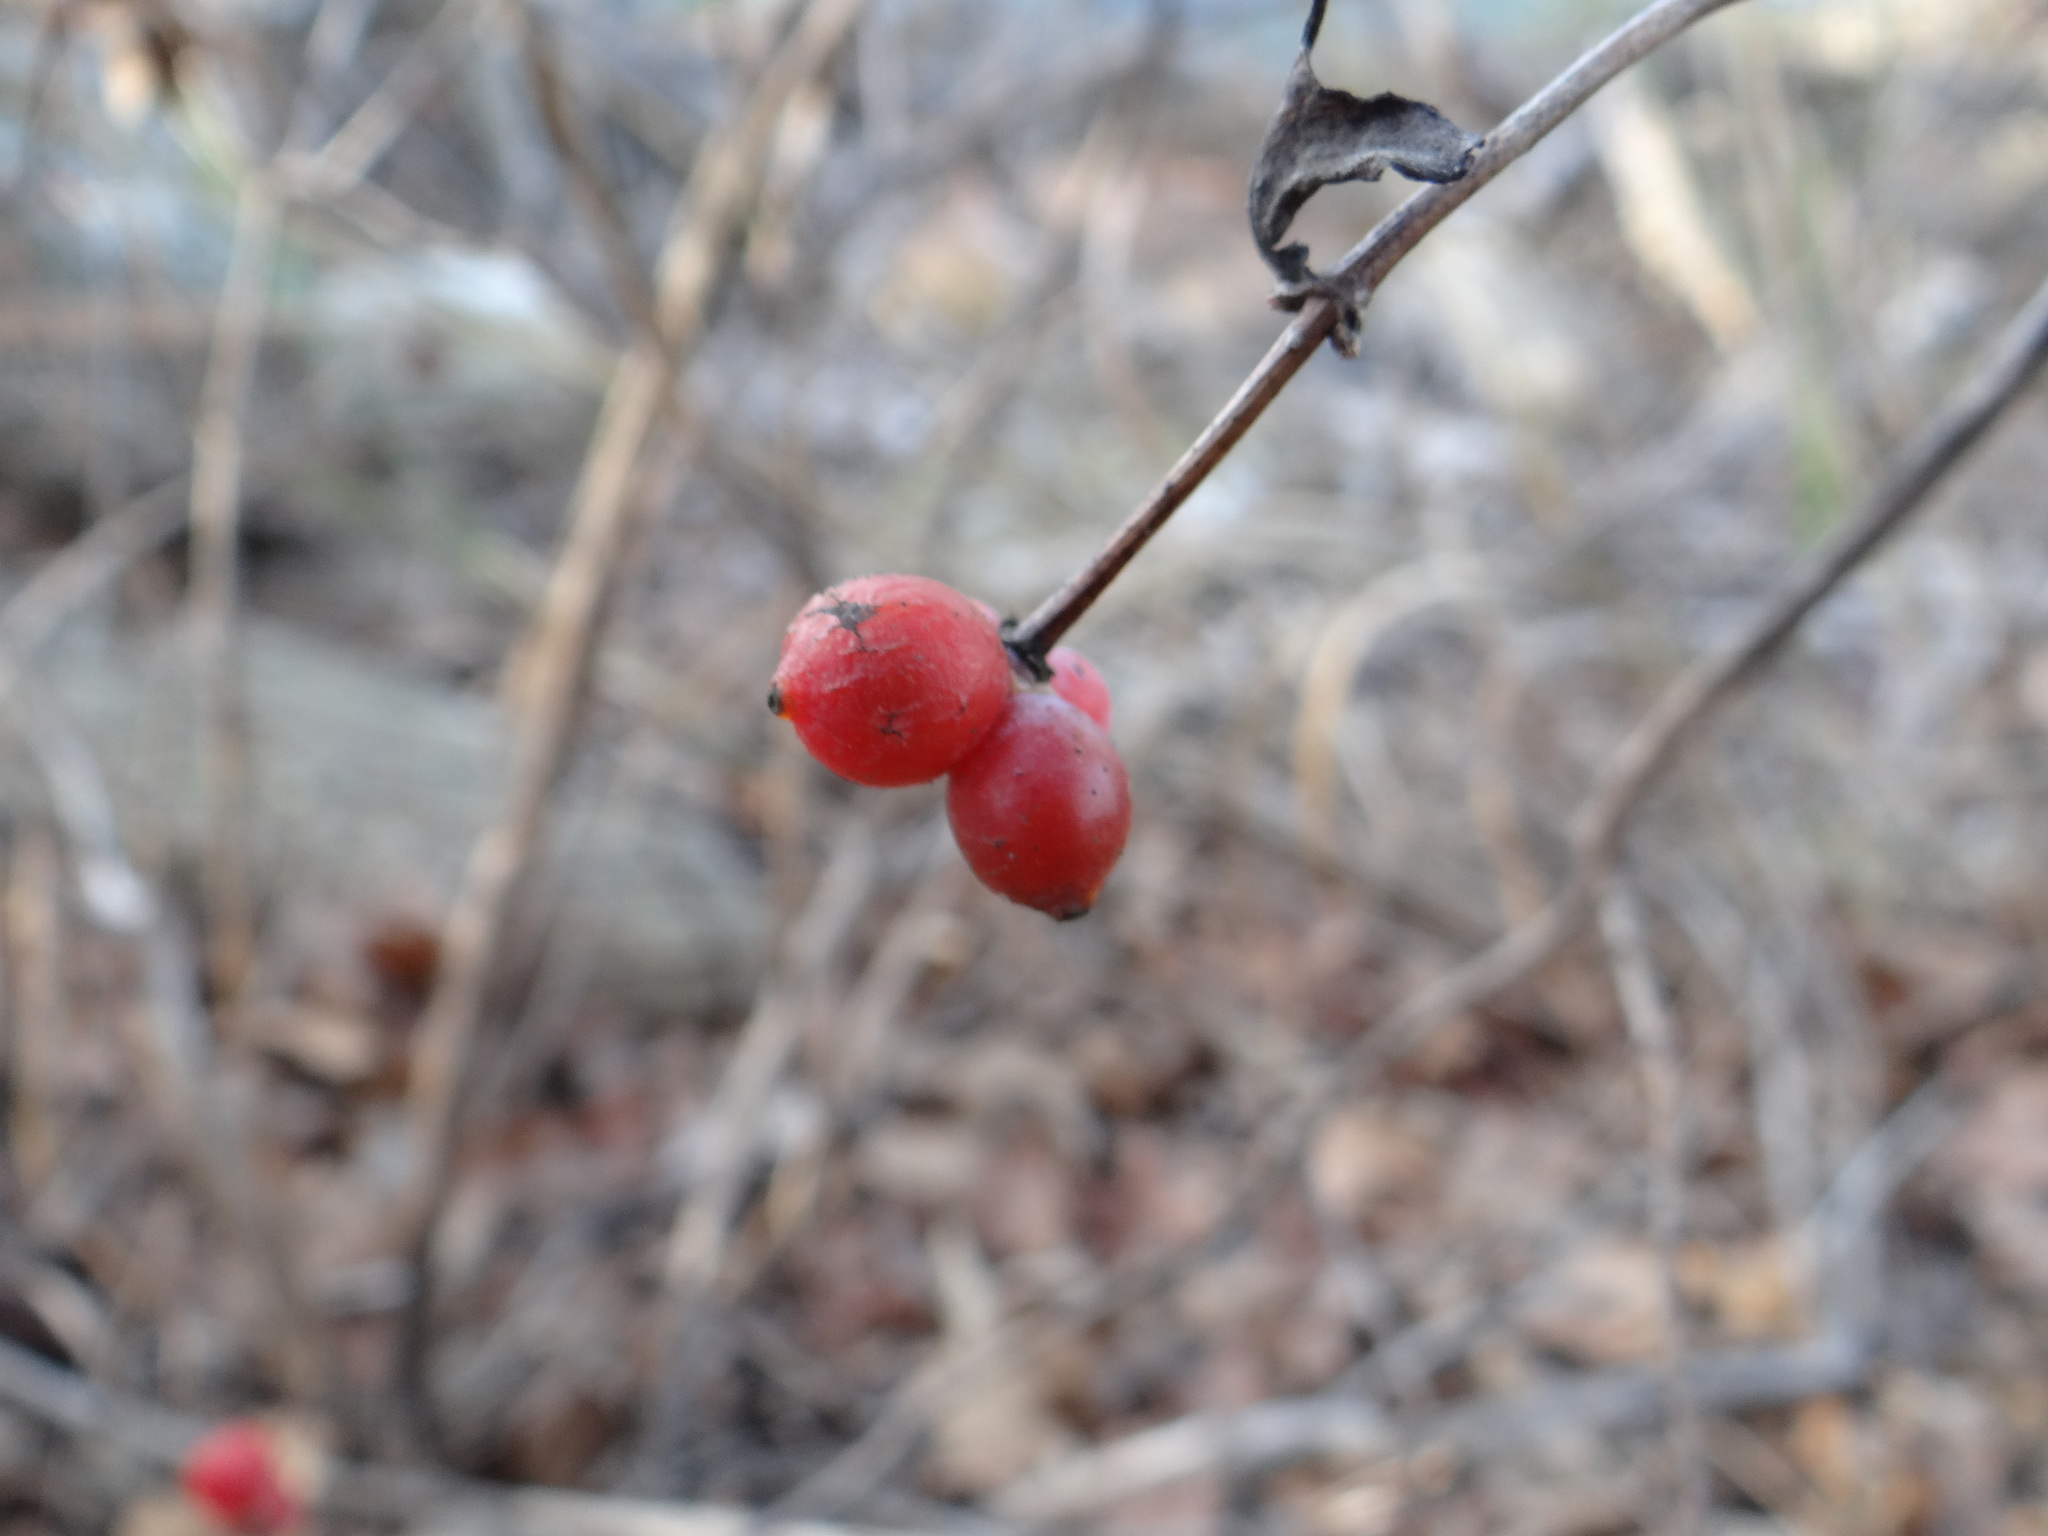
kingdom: Plantae
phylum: Tracheophyta
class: Magnoliopsida
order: Dipsacales
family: Caprifoliaceae
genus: Lonicera
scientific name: Lonicera albiflora
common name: White honeysuckle
